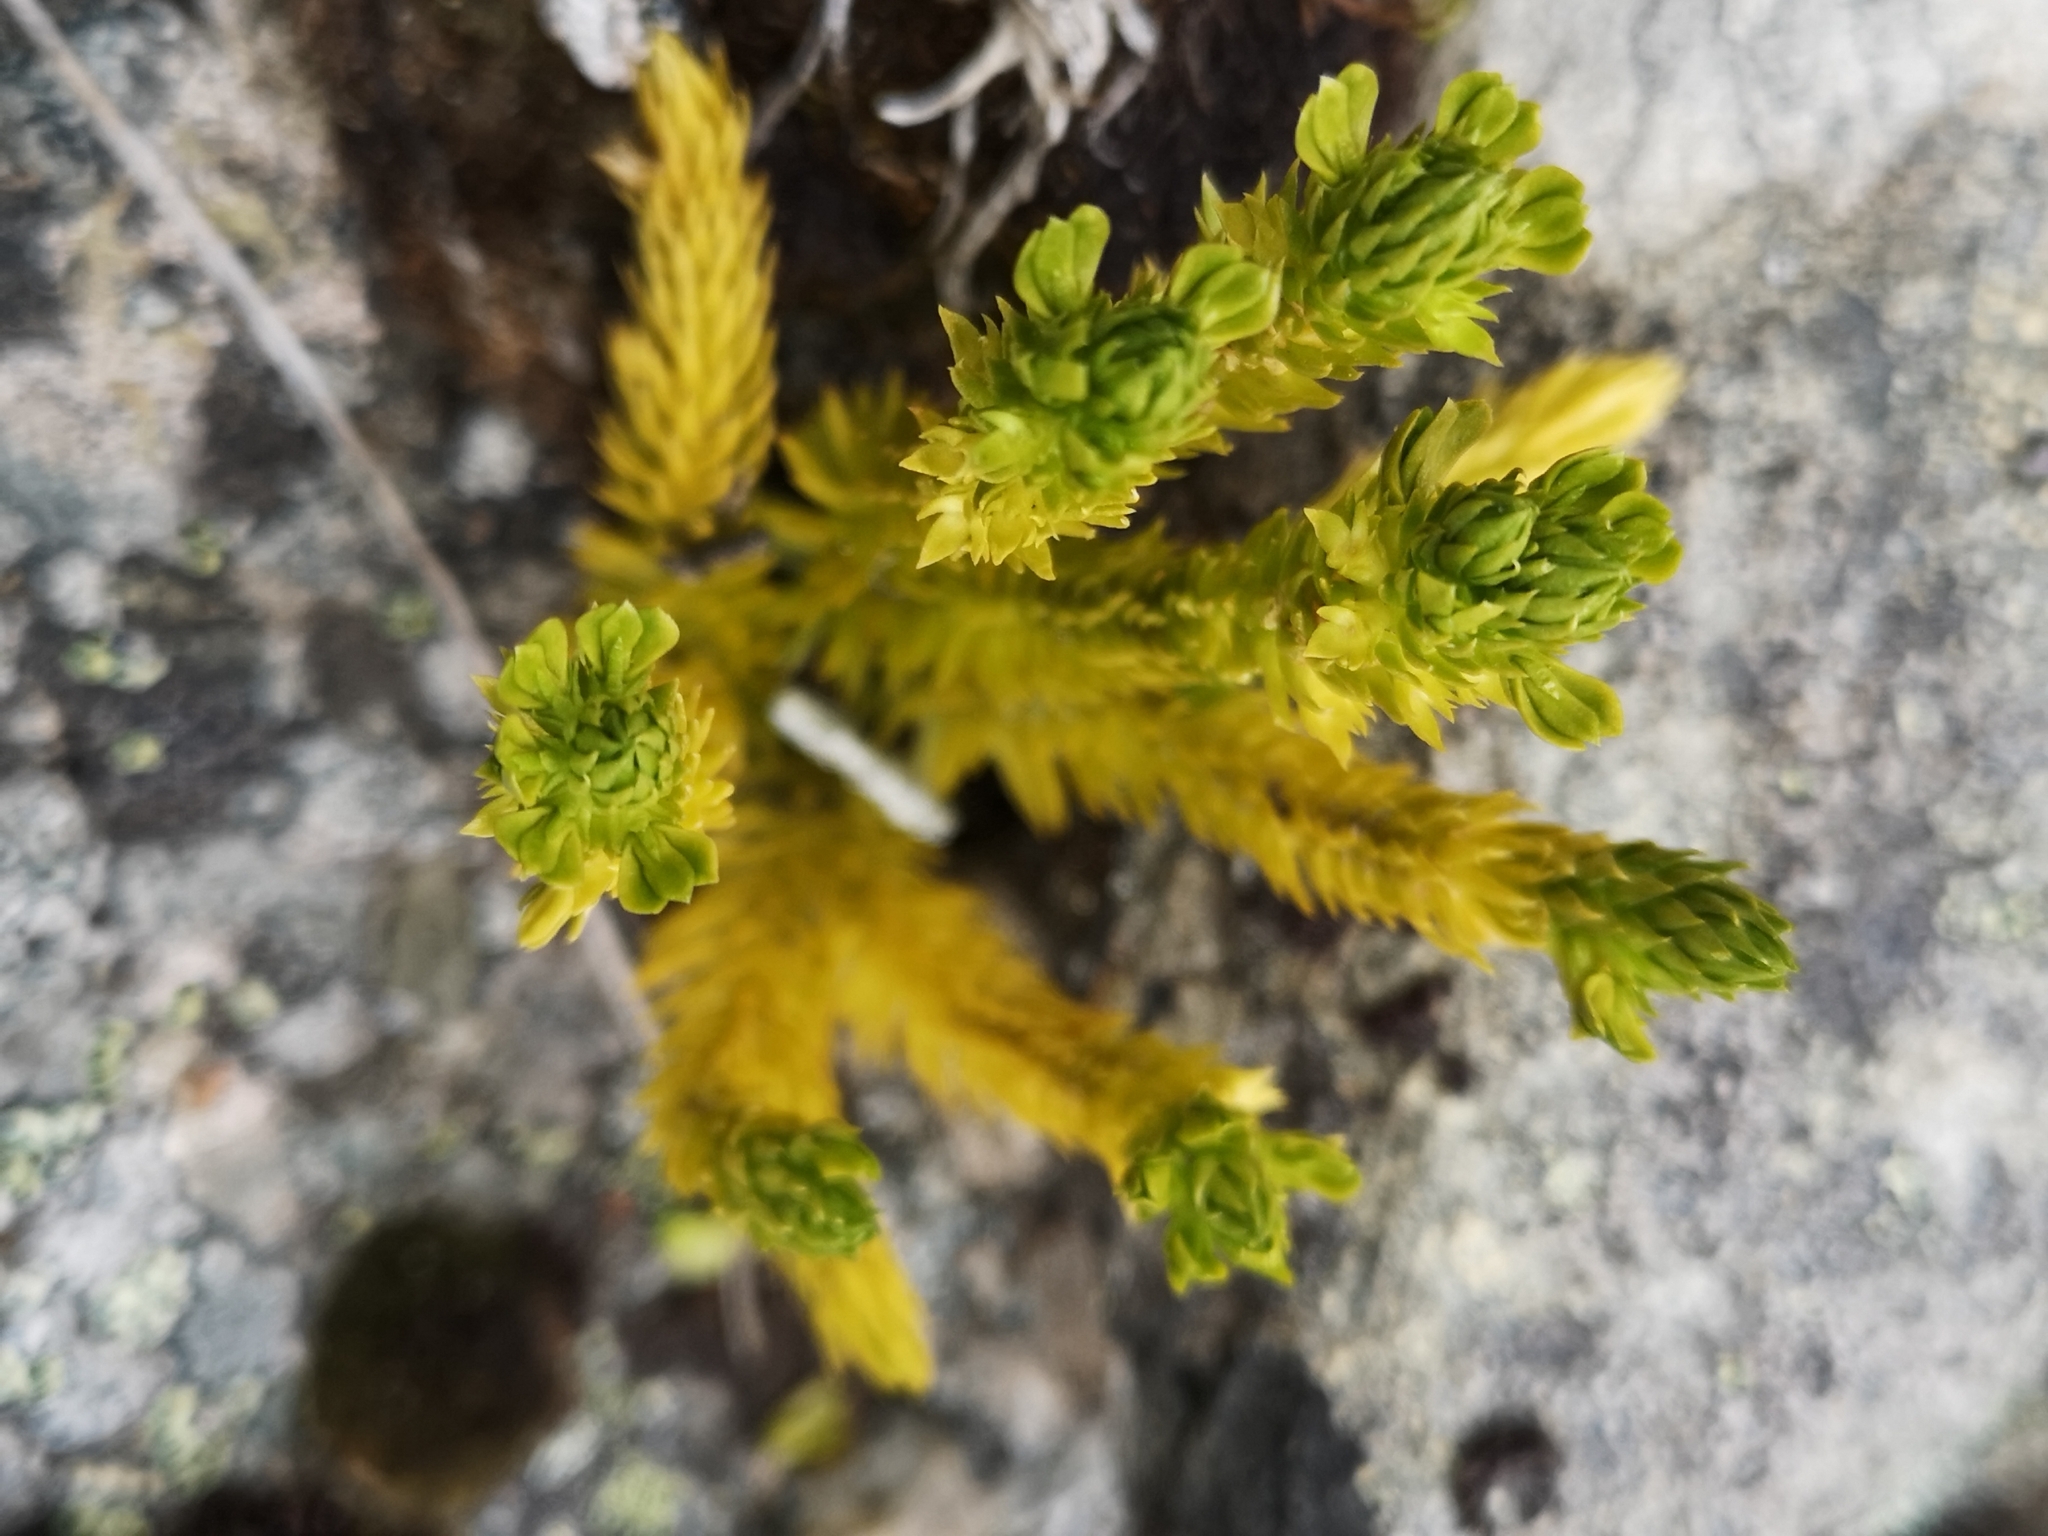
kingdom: Plantae
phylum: Tracheophyta
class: Lycopodiopsida
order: Lycopodiales
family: Lycopodiaceae
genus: Huperzia
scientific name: Huperzia selago
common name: Northern firmoss
